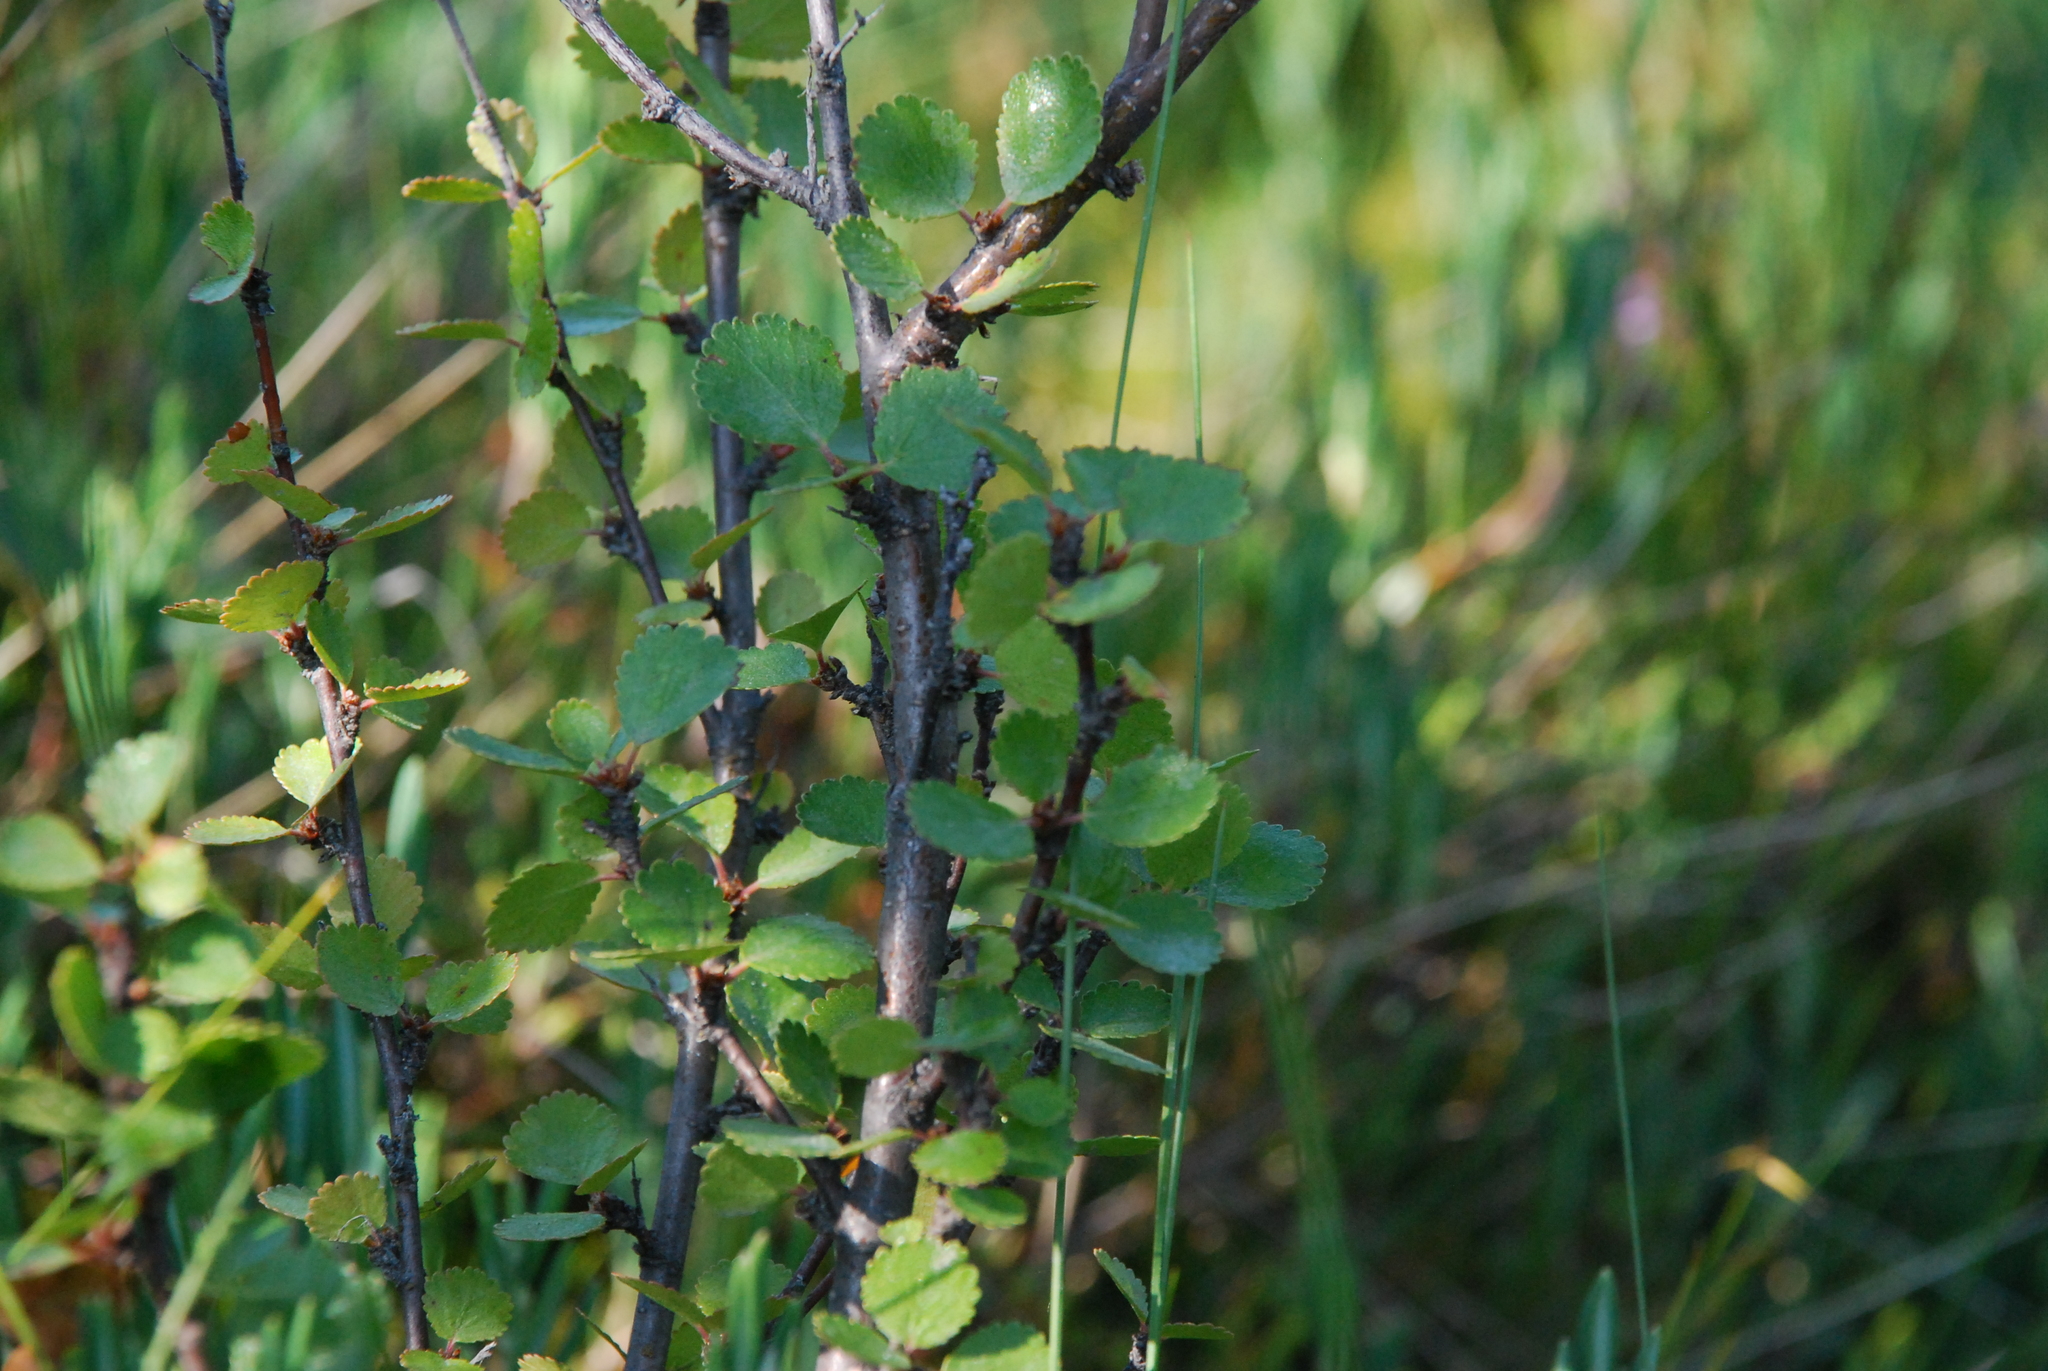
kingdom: Plantae
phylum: Tracheophyta
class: Magnoliopsida
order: Fagales
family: Betulaceae
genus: Betula
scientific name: Betula nana
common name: Arctic dwarf birch
